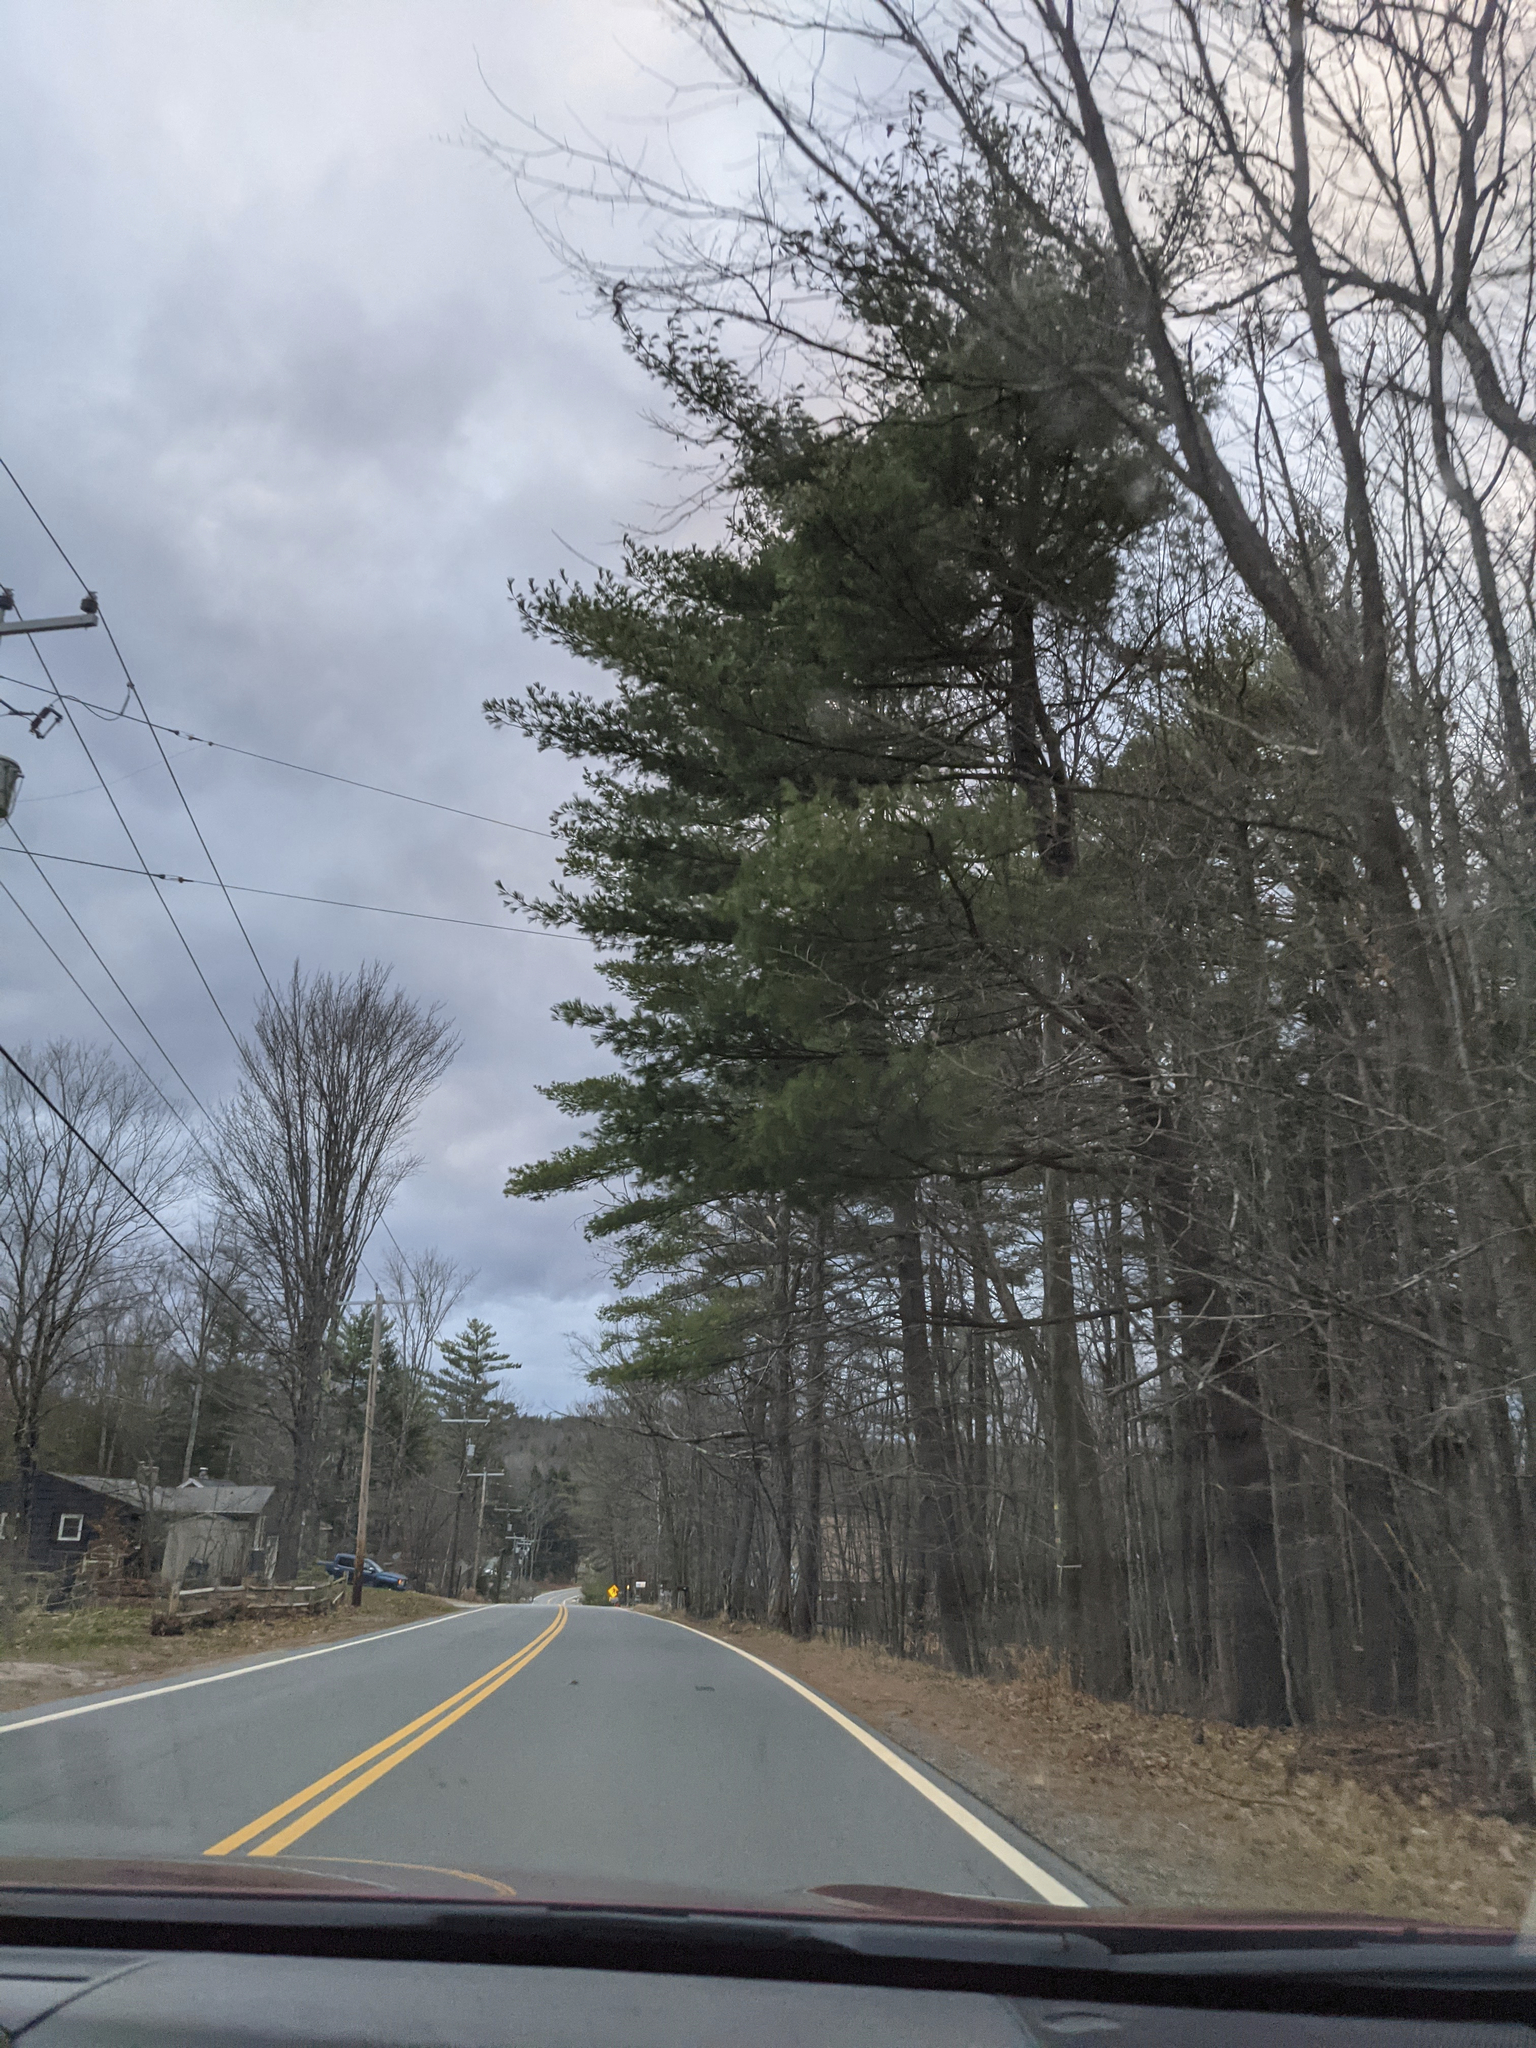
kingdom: Plantae
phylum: Tracheophyta
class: Pinopsida
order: Pinales
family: Pinaceae
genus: Pinus
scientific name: Pinus strobus
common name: Weymouth pine
